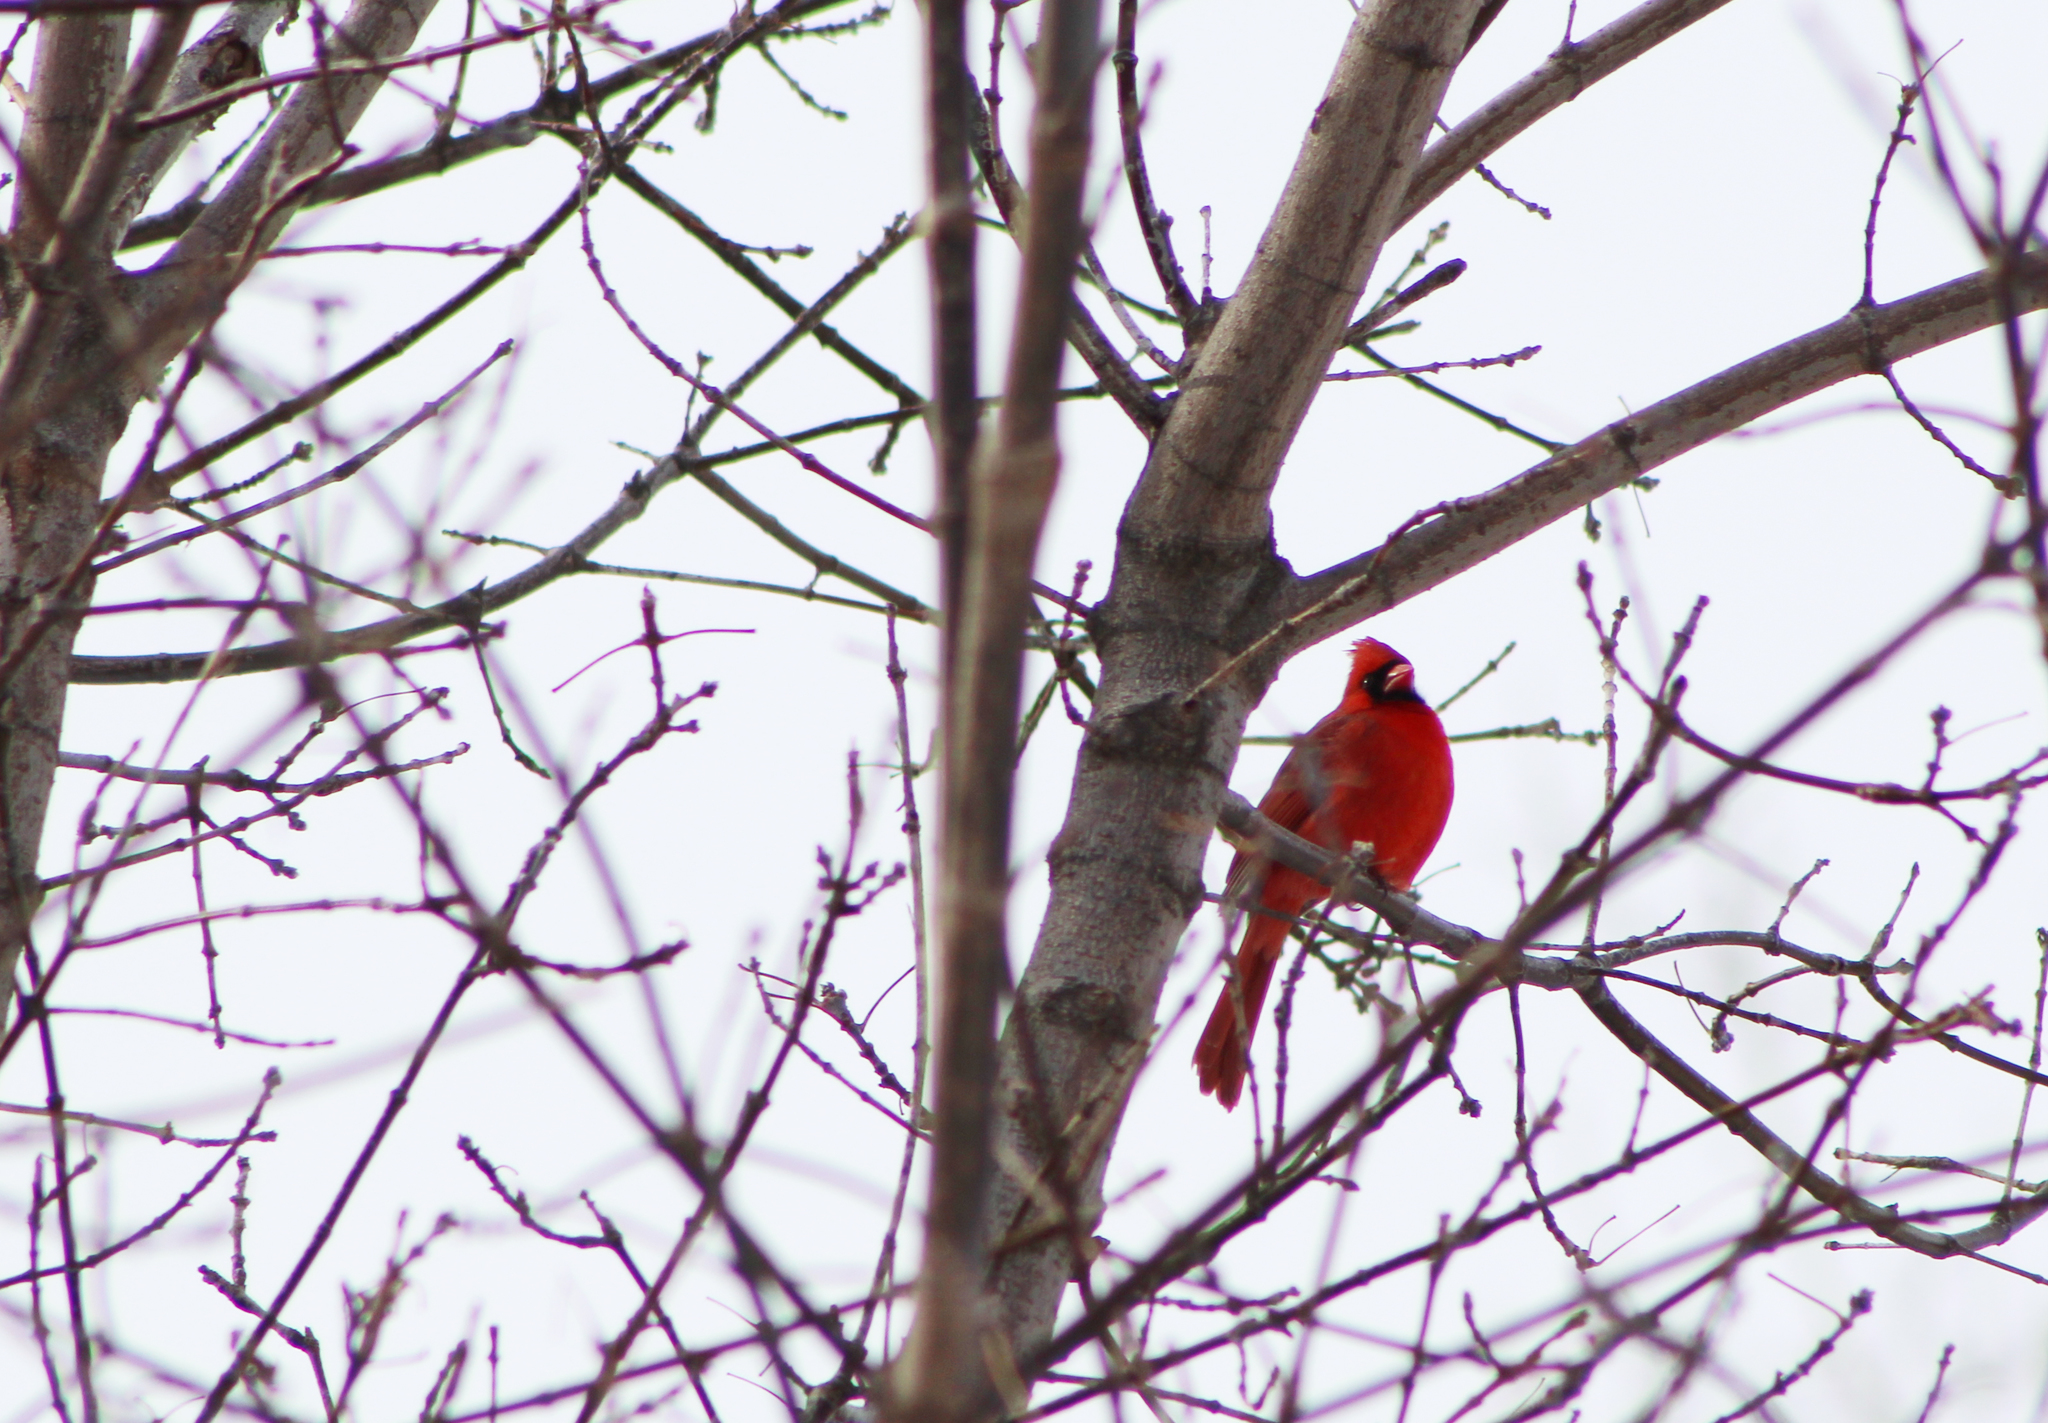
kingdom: Animalia
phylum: Chordata
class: Aves
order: Passeriformes
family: Cardinalidae
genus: Cardinalis
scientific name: Cardinalis cardinalis
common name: Northern cardinal
